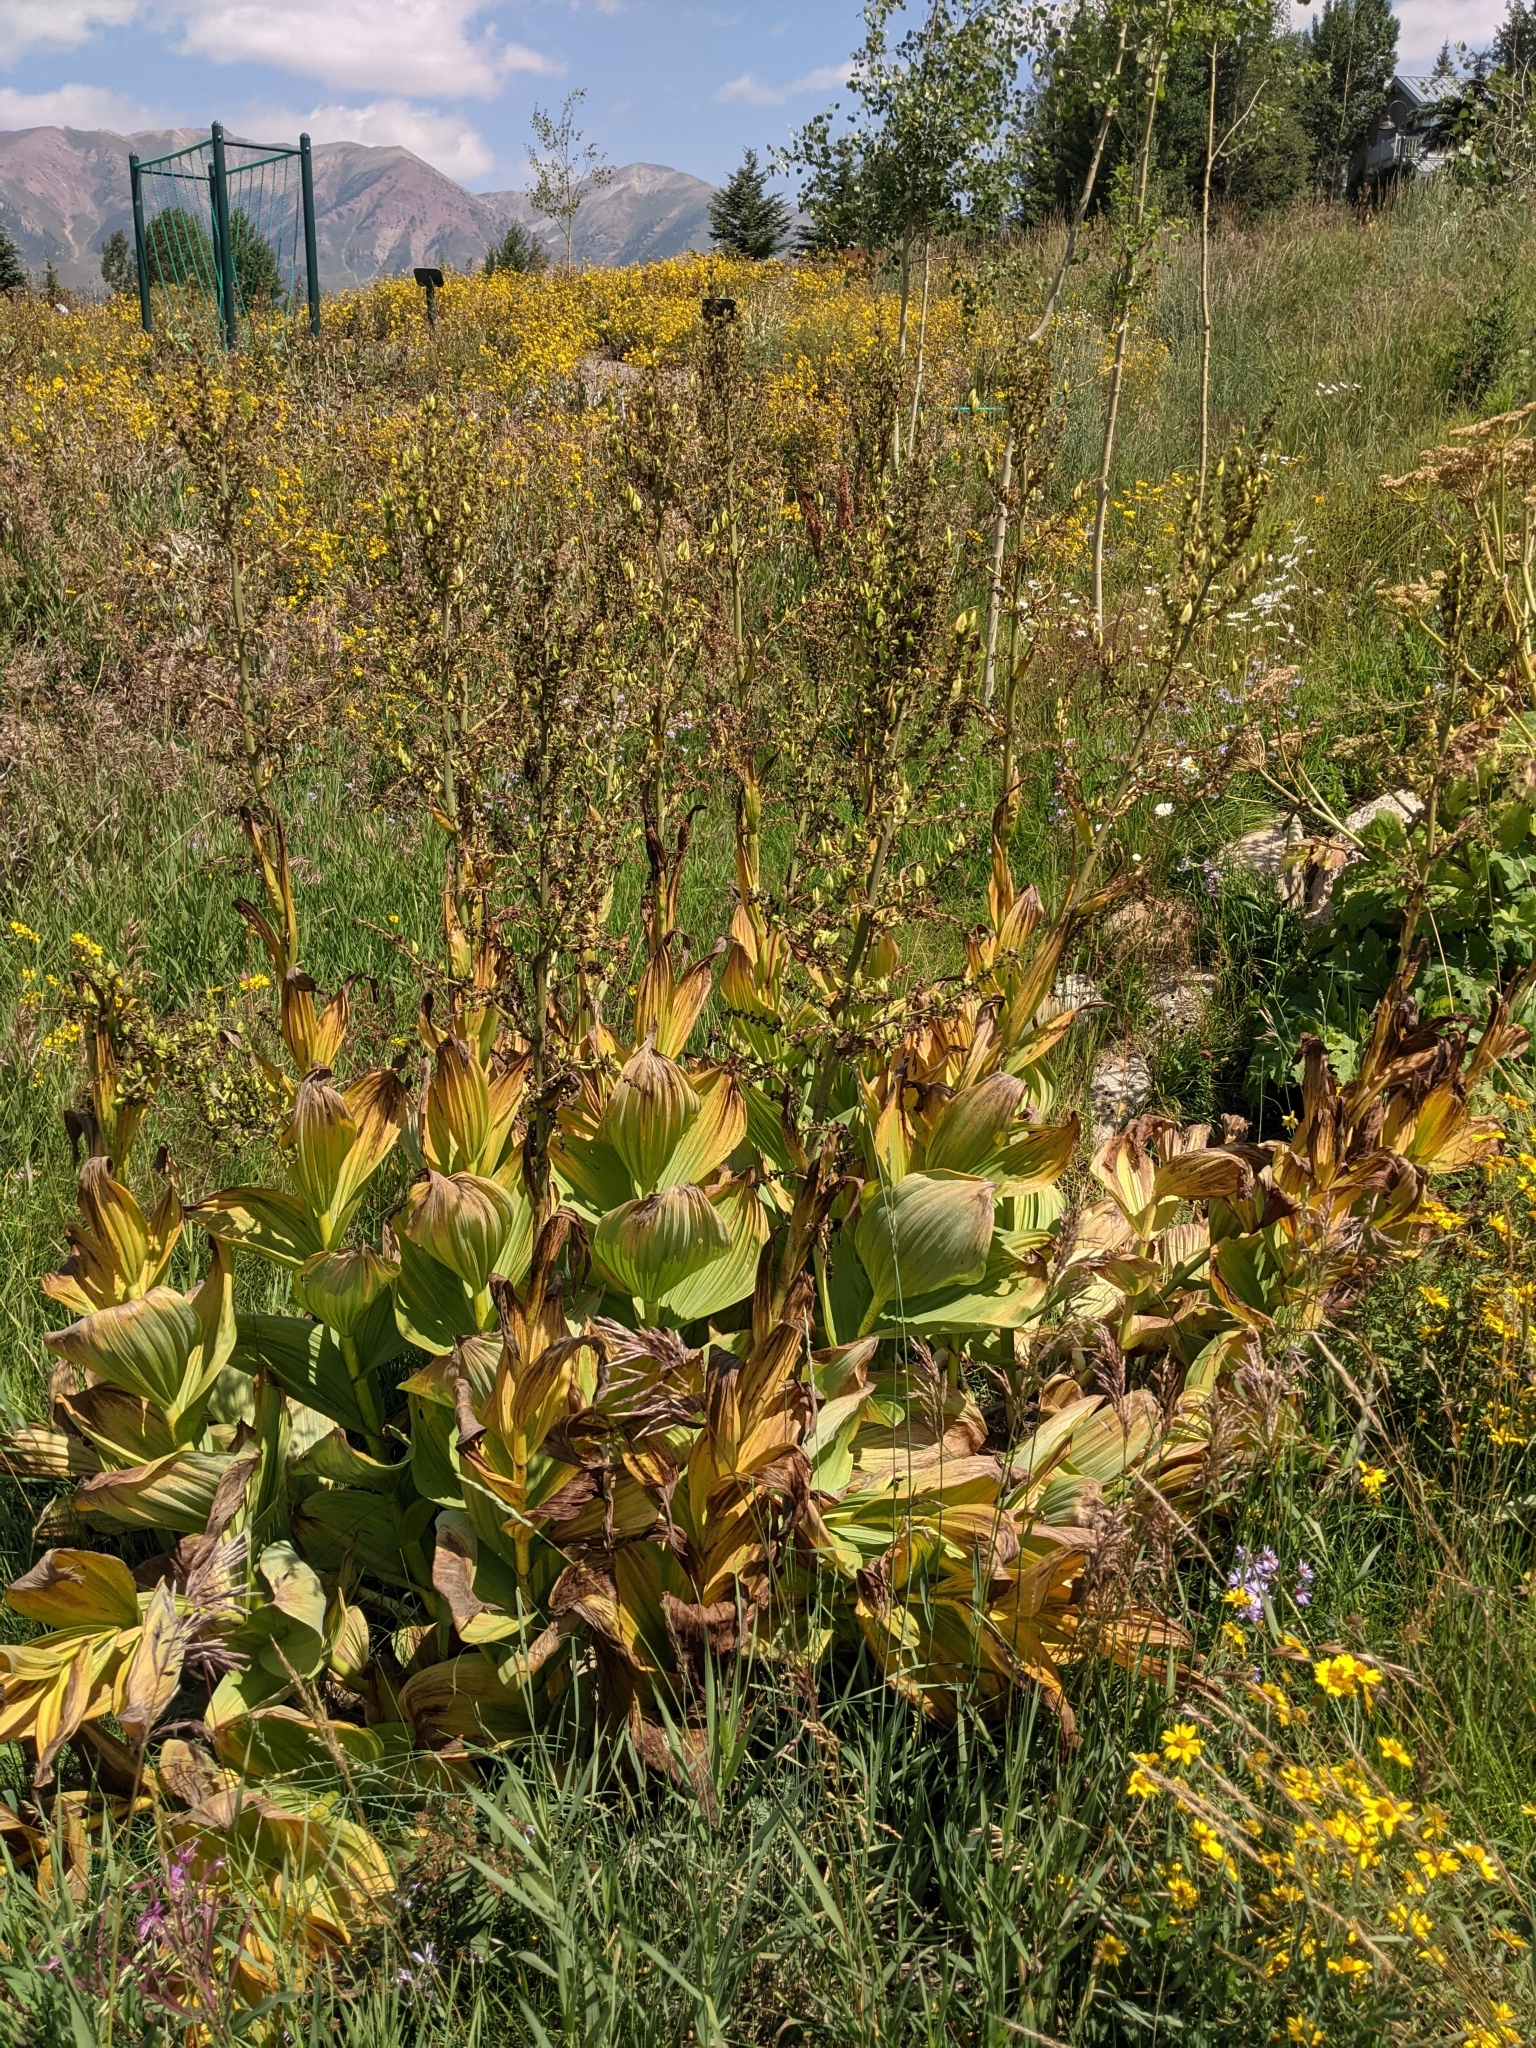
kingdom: Plantae
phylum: Tracheophyta
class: Liliopsida
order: Liliales
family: Melanthiaceae
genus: Veratrum
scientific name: Veratrum californicum
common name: California veratrum
